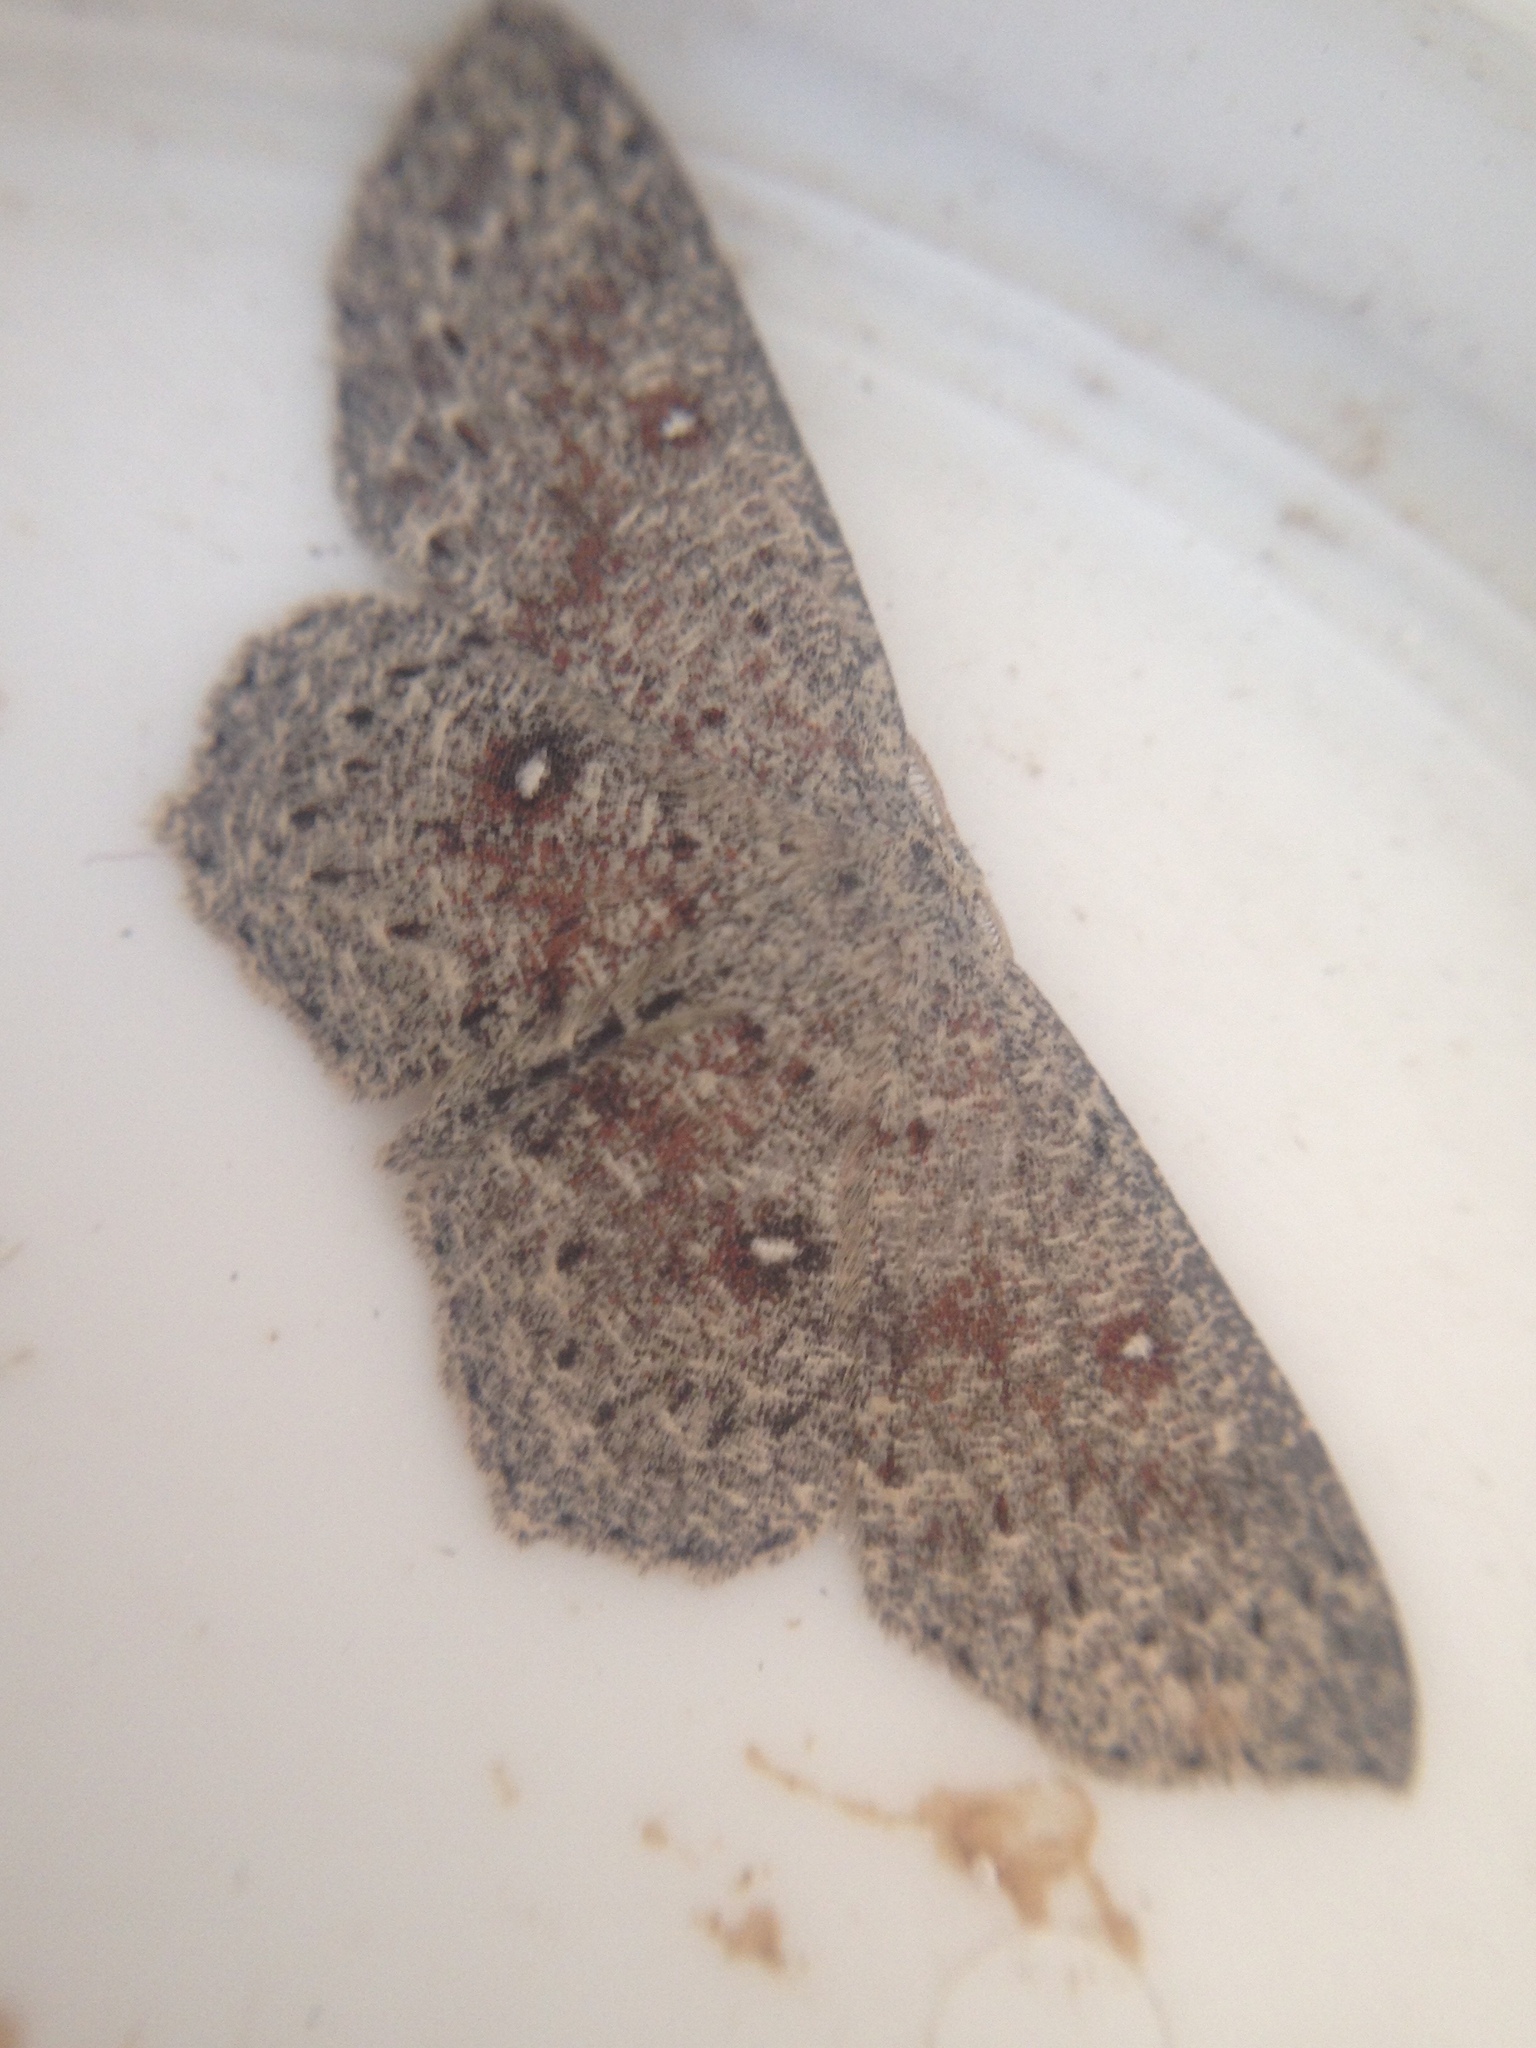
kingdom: Animalia
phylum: Arthropoda
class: Insecta
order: Lepidoptera
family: Geometridae
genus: Cyclophora
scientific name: Cyclophora pendularia
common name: Dingy mocha
